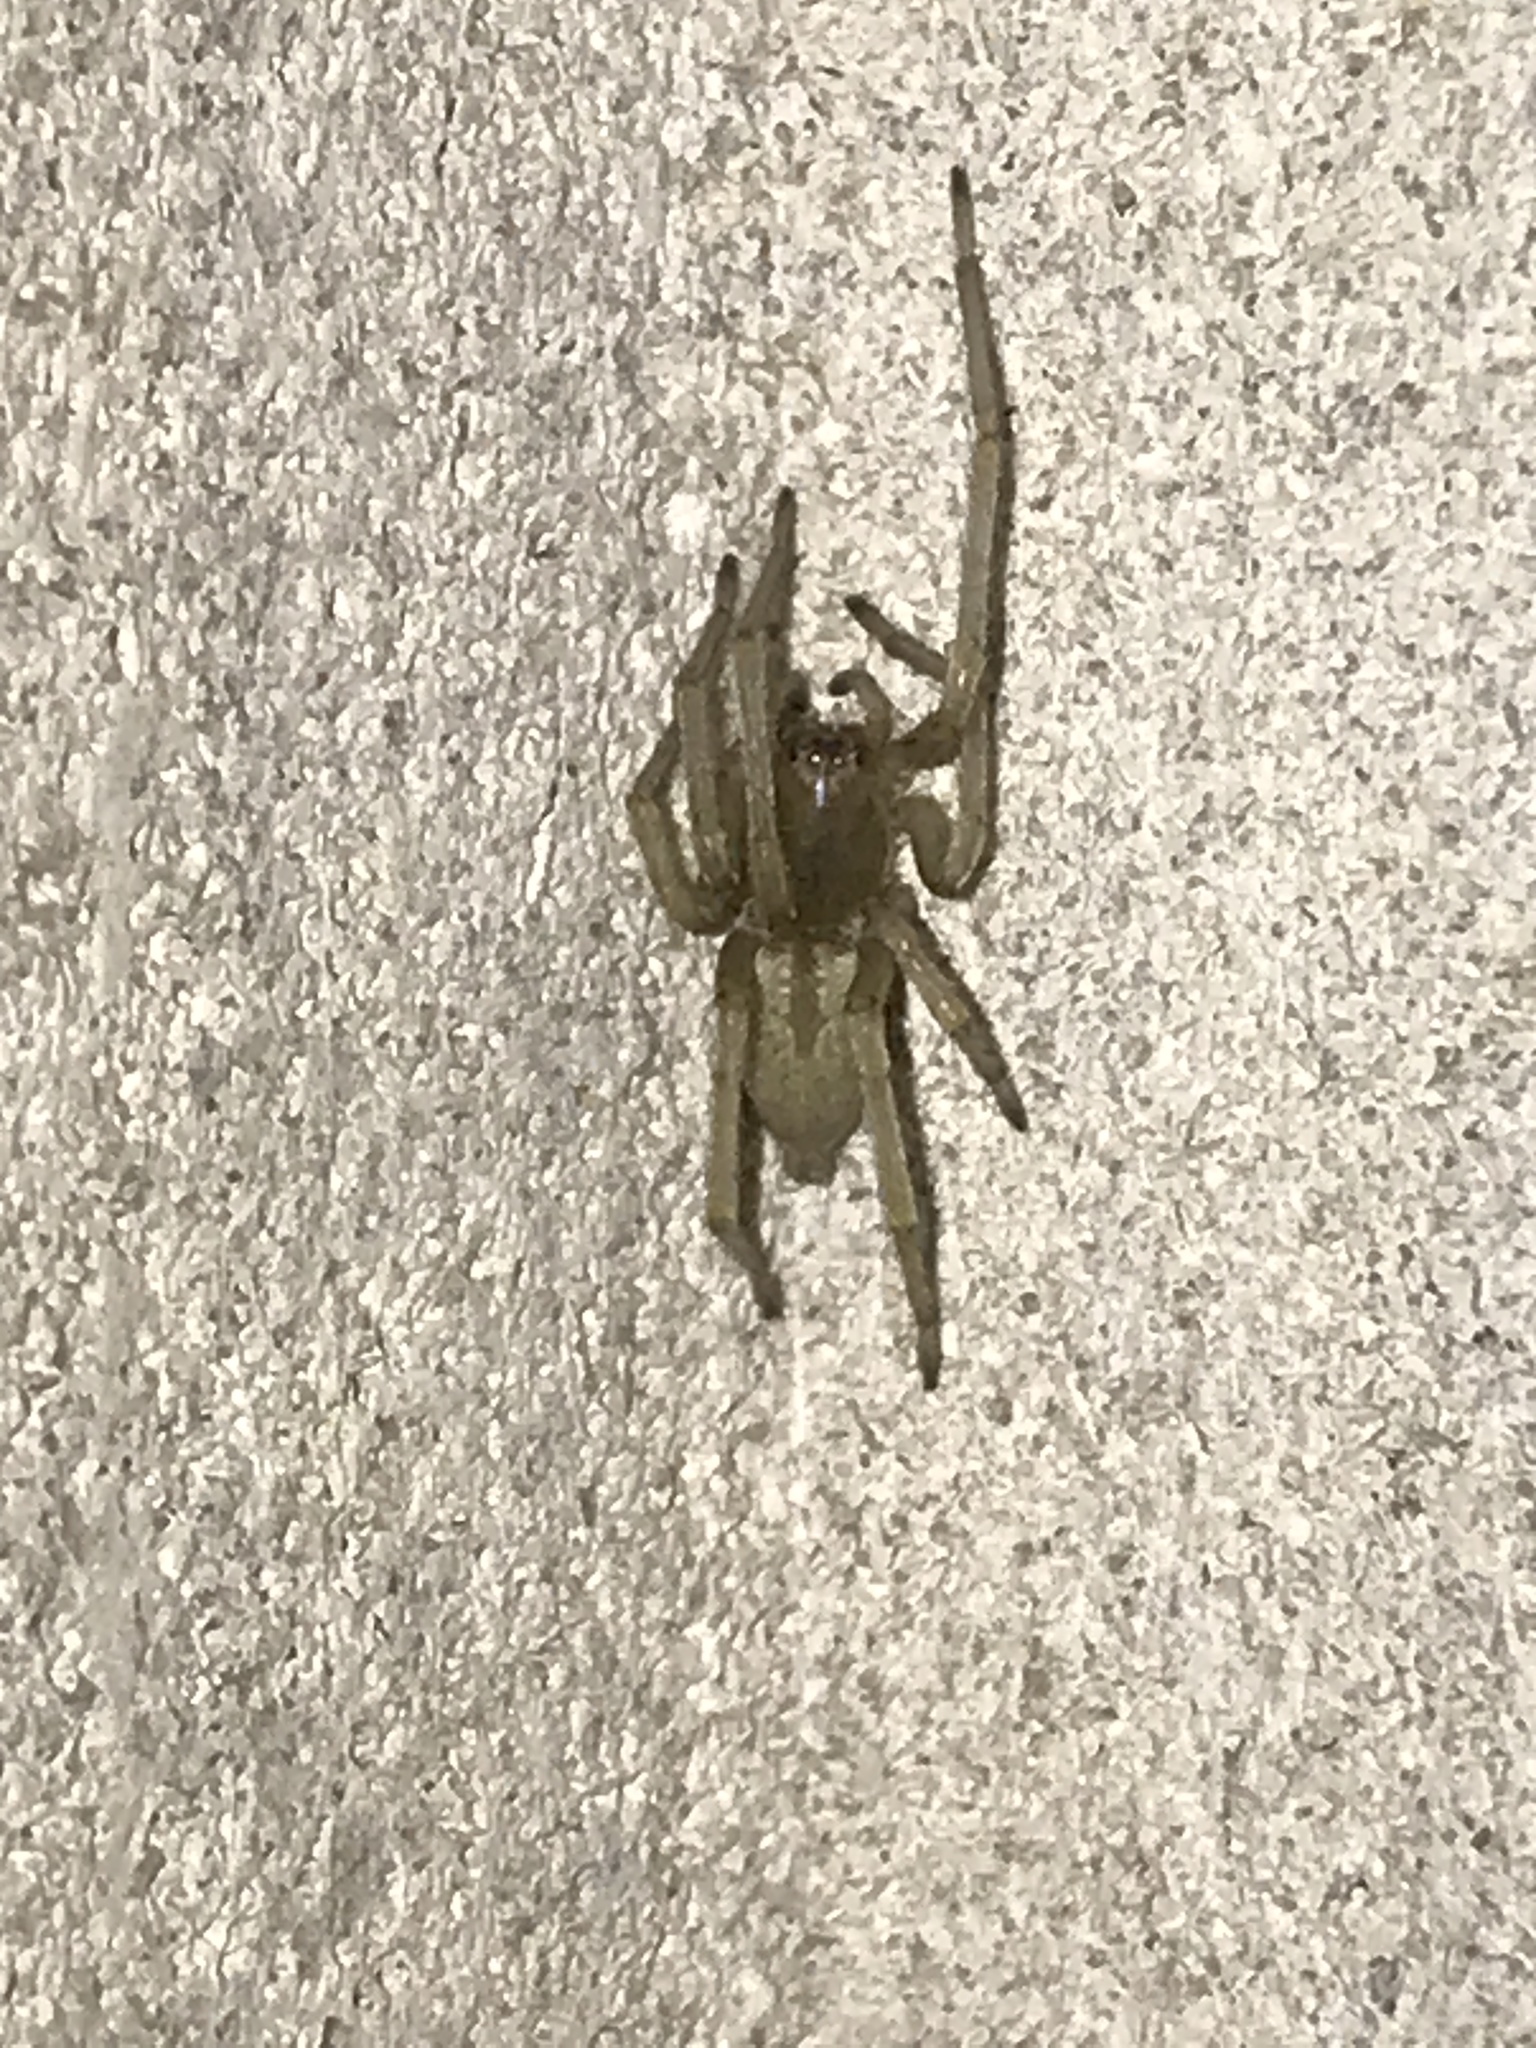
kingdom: Animalia
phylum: Arthropoda
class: Arachnida
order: Araneae
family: Cheiracanthiidae
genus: Cheiracanthium
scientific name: Cheiracanthium mildei
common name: Northern yellow sac spider
